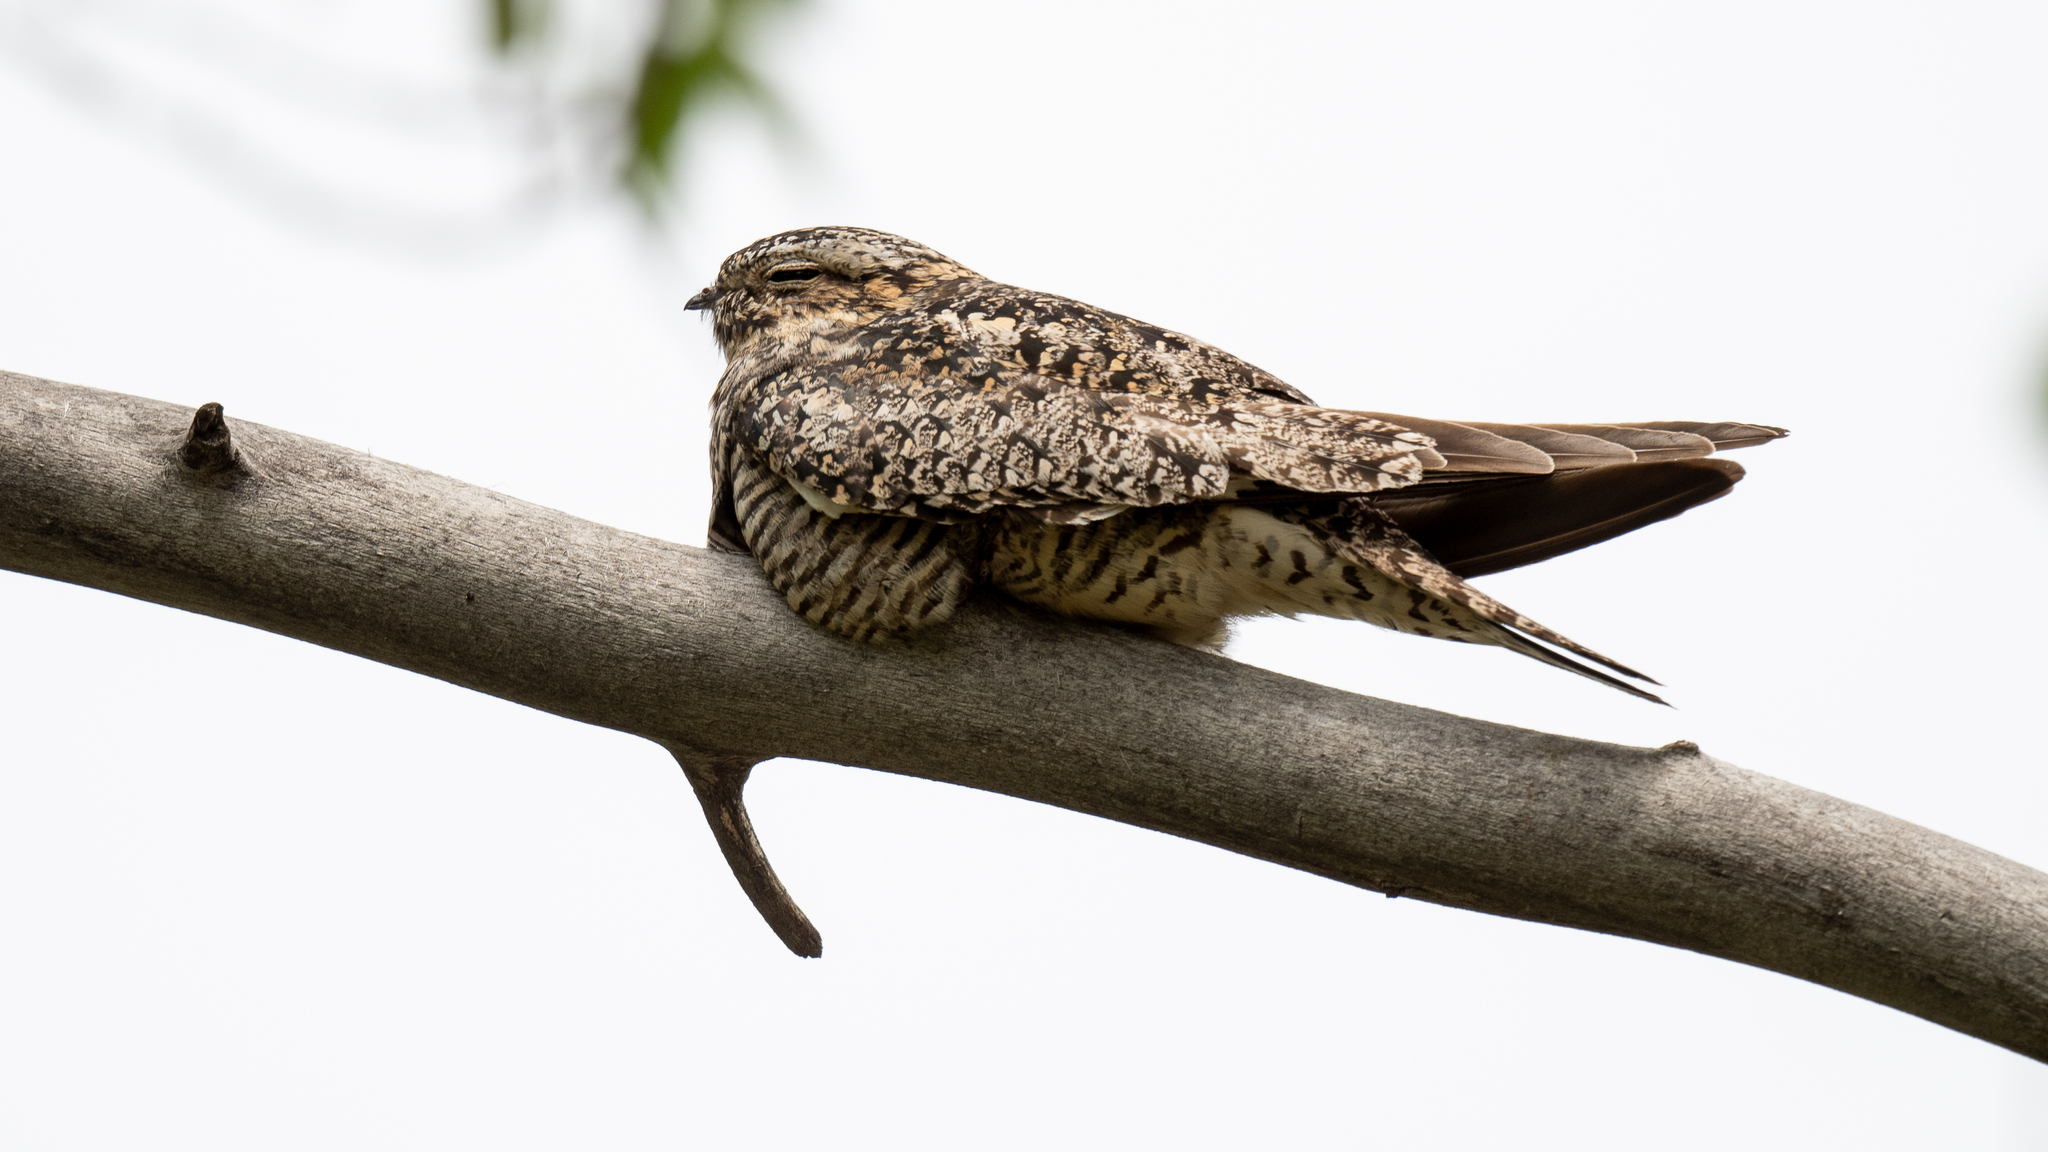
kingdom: Animalia
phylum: Chordata
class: Aves
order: Caprimulgiformes
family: Caprimulgidae
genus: Chordeiles
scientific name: Chordeiles minor
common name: Common nighthawk
